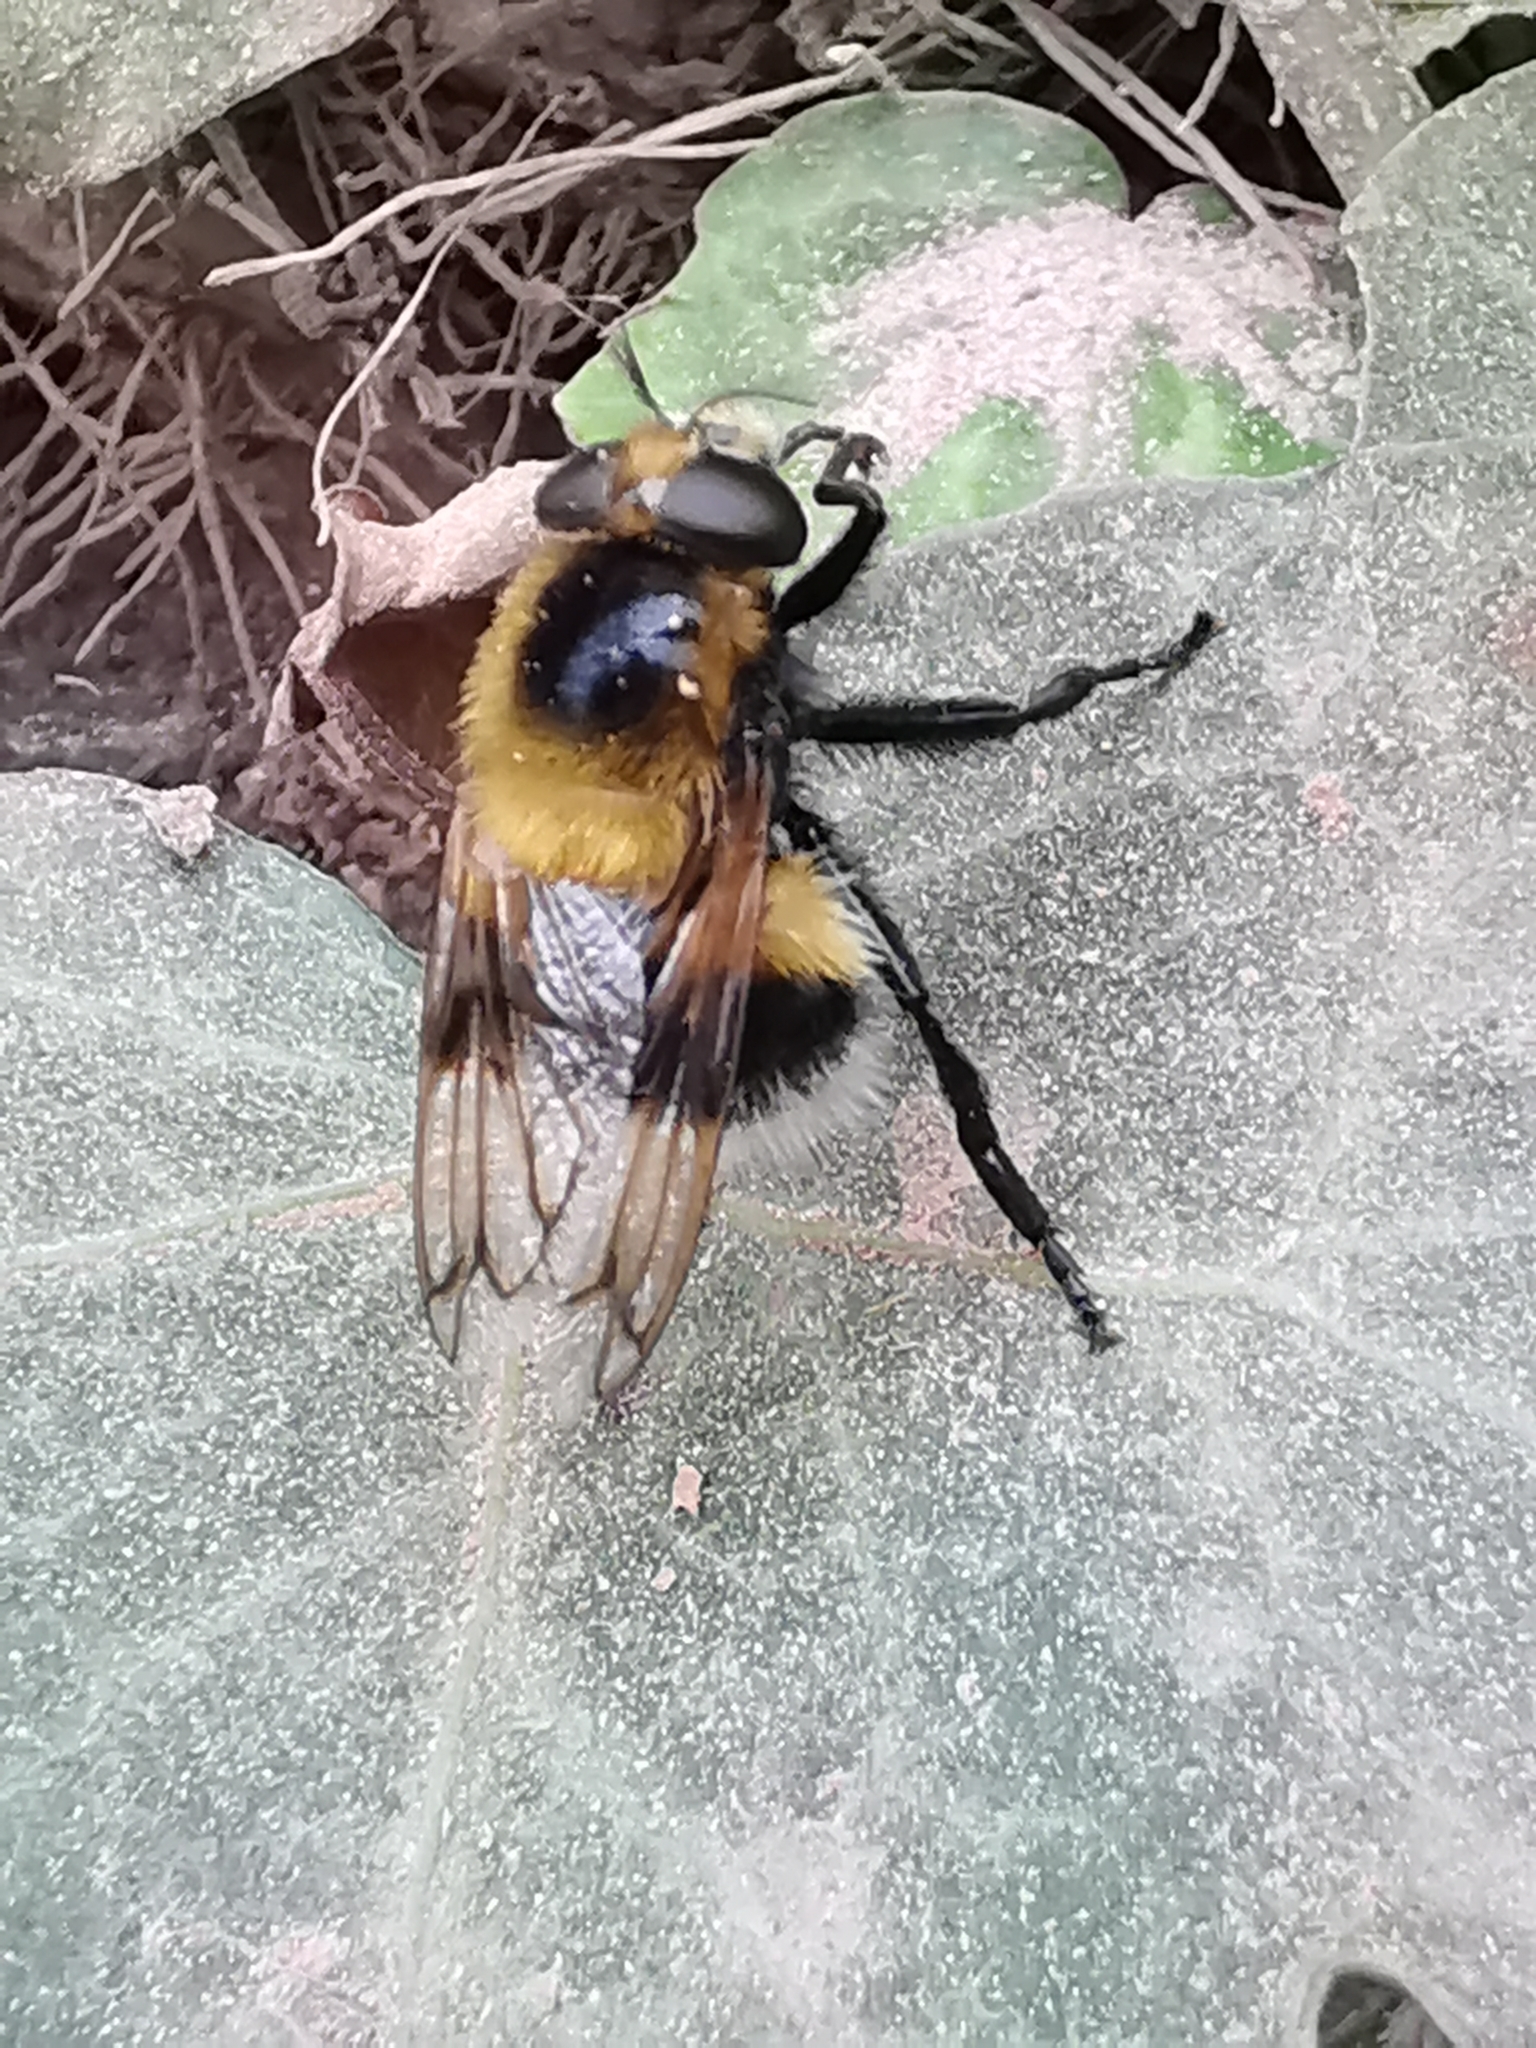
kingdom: Animalia
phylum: Arthropoda
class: Insecta
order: Diptera
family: Syrphidae
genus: Volucella
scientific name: Volucella bombylans
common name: Bumble bee hover fly
